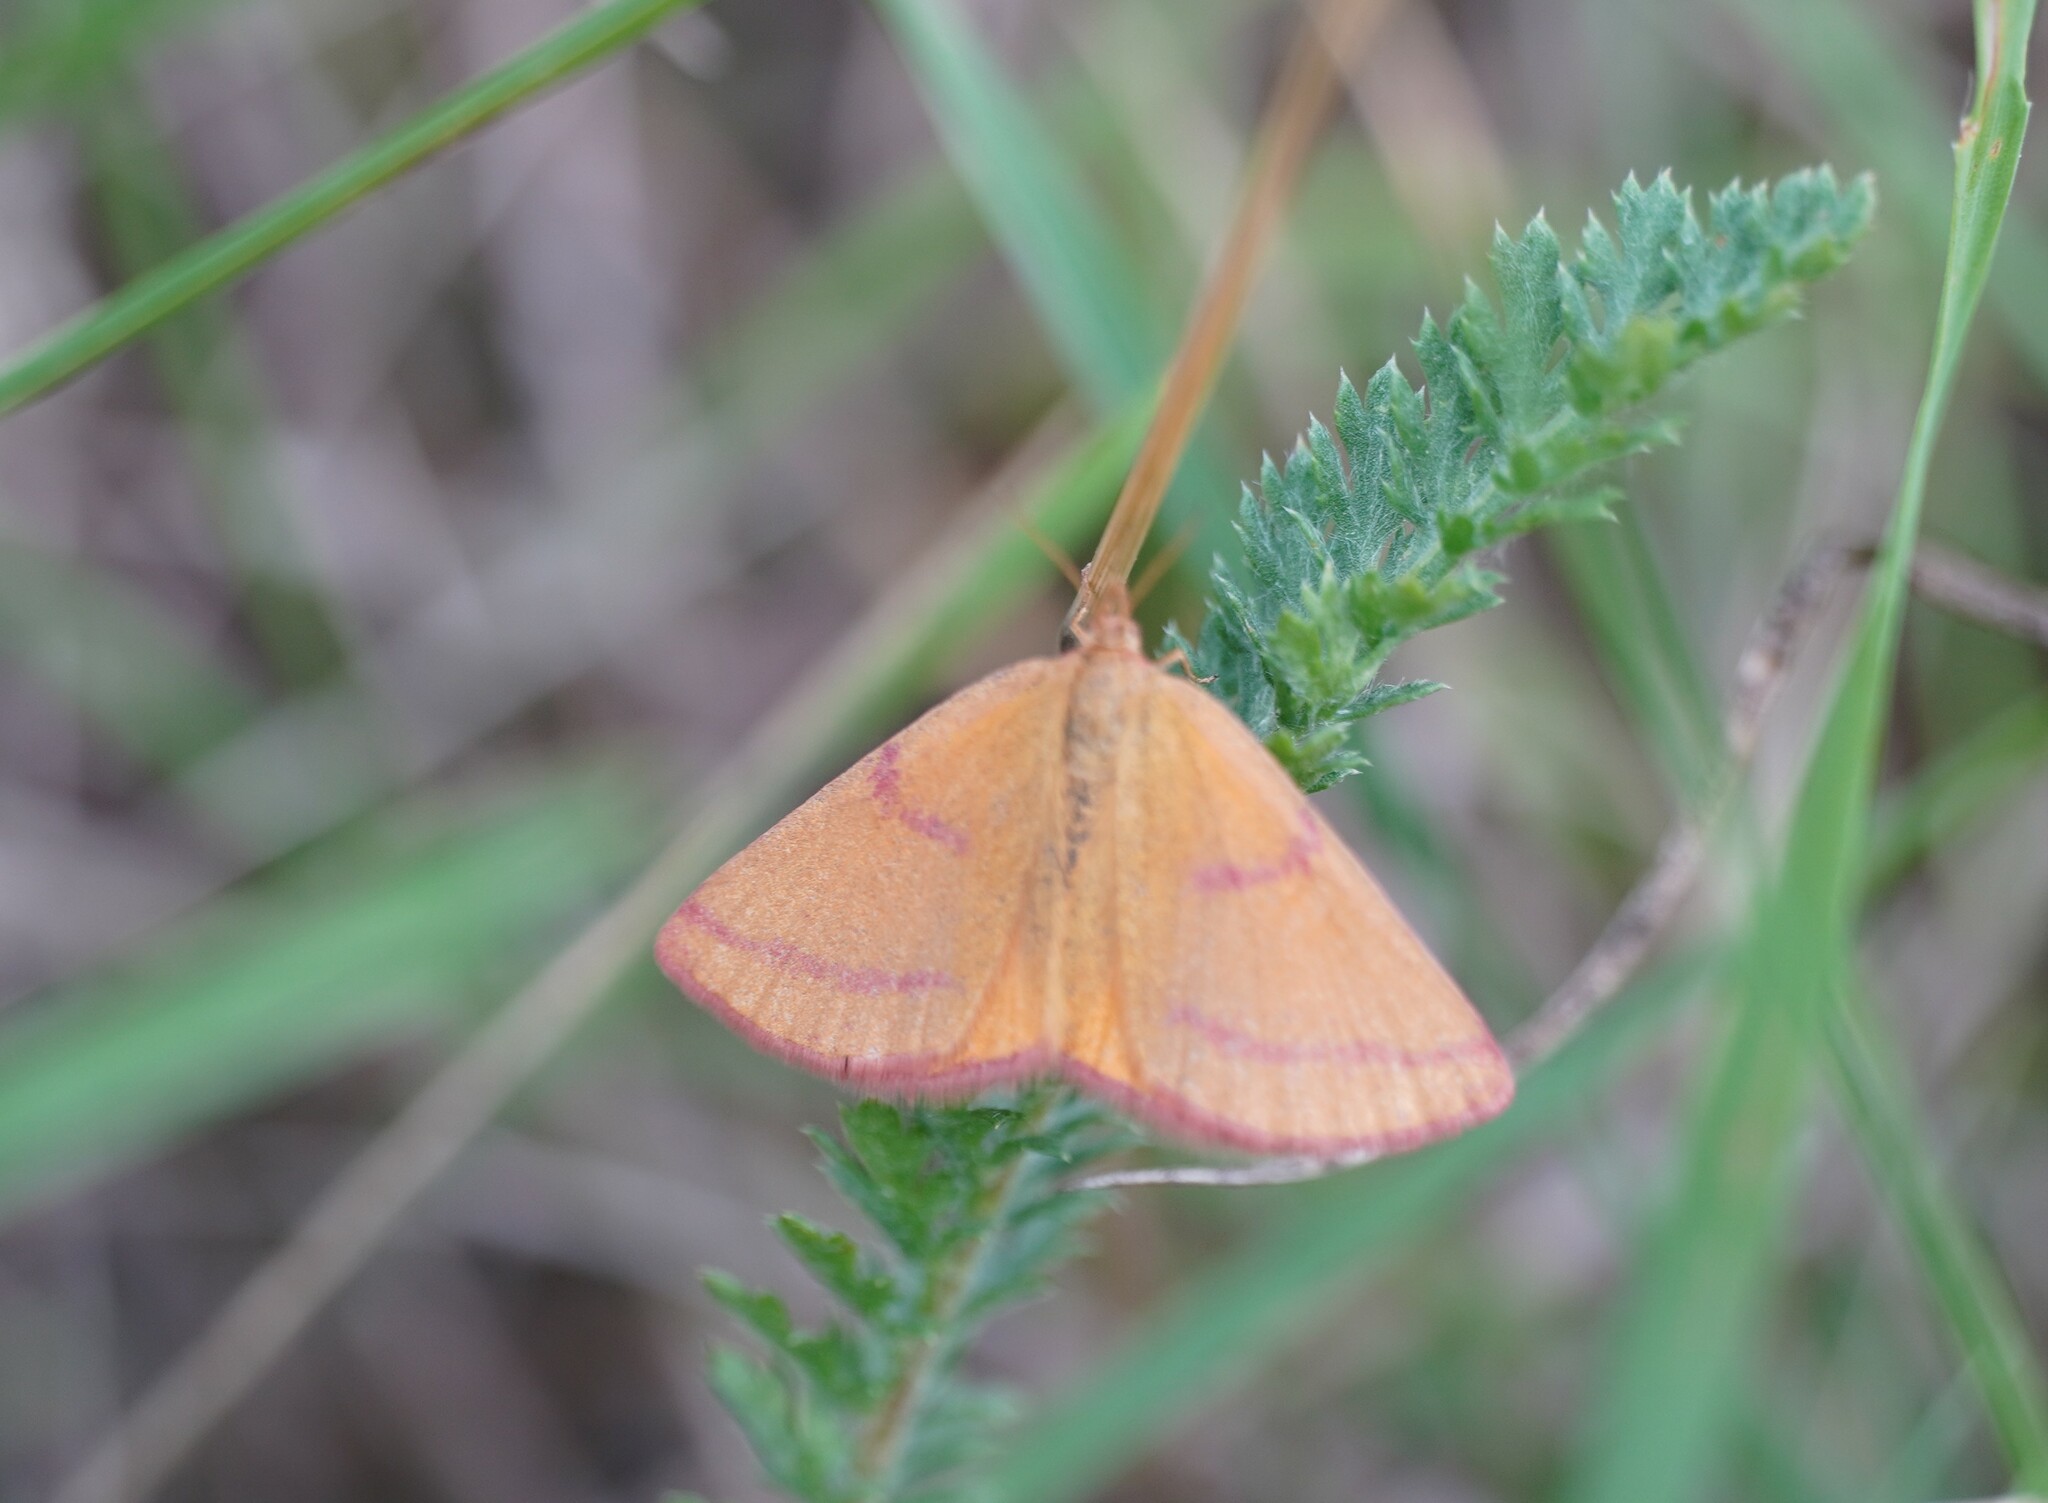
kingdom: Animalia
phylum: Arthropoda
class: Insecta
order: Lepidoptera
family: Geometridae
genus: Lythria
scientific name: Lythria purpuraria
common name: Purple-barred yellow
